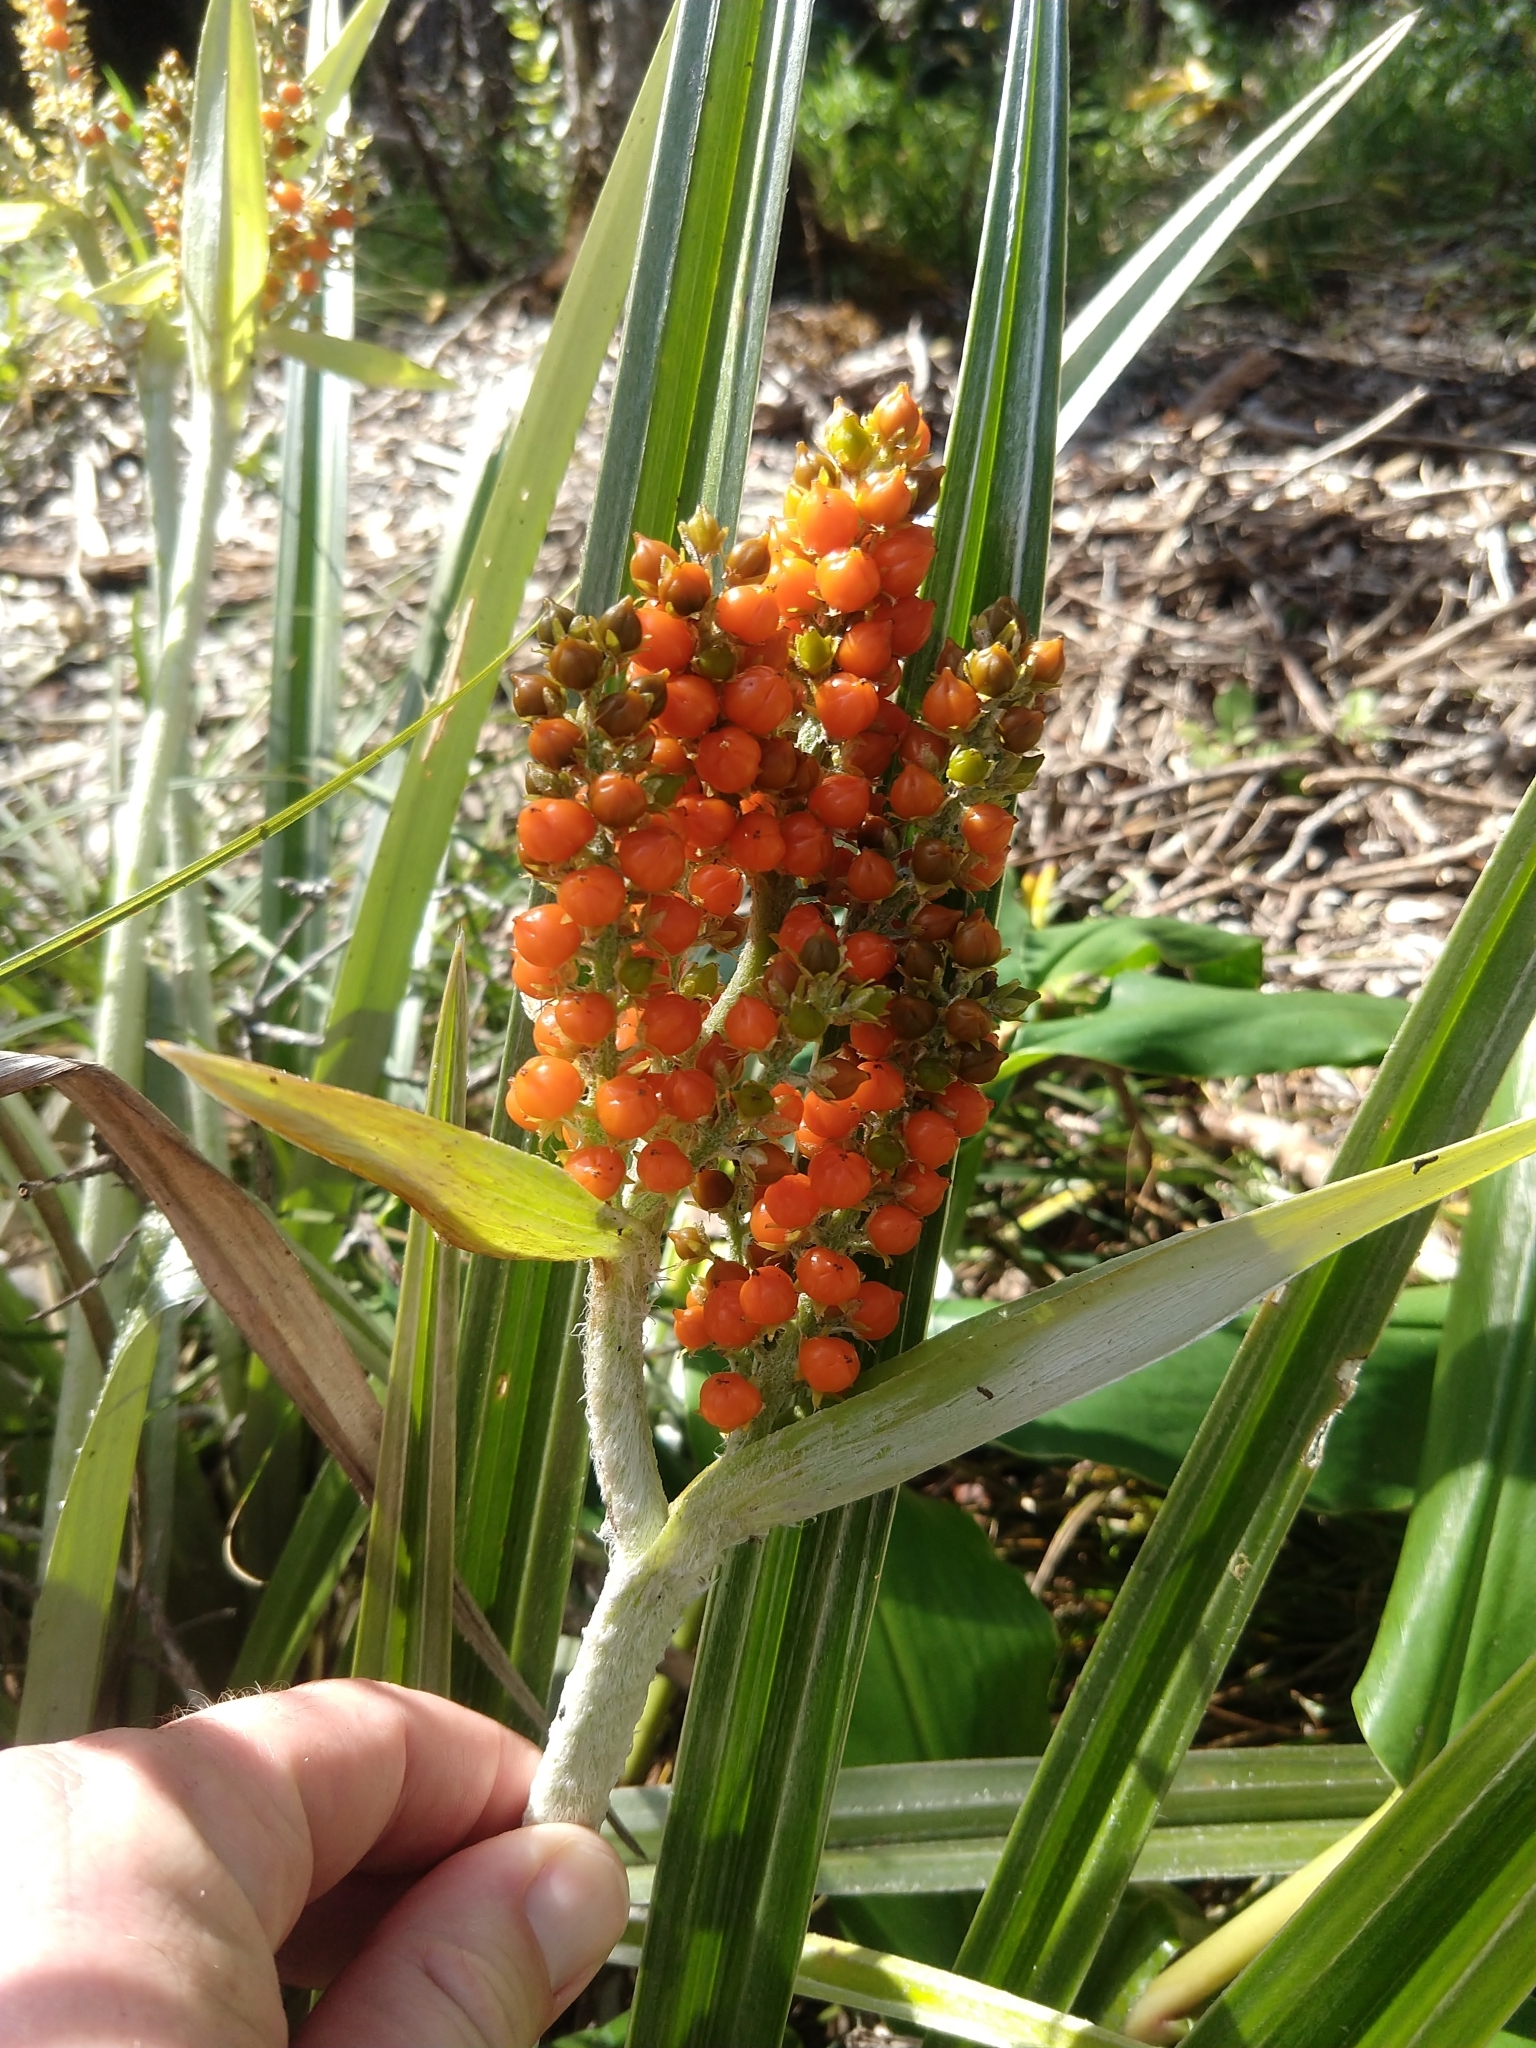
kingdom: Plantae
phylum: Tracheophyta
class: Liliopsida
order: Asparagales
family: Asteliaceae
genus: Astelia
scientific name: Astelia menziesiana
